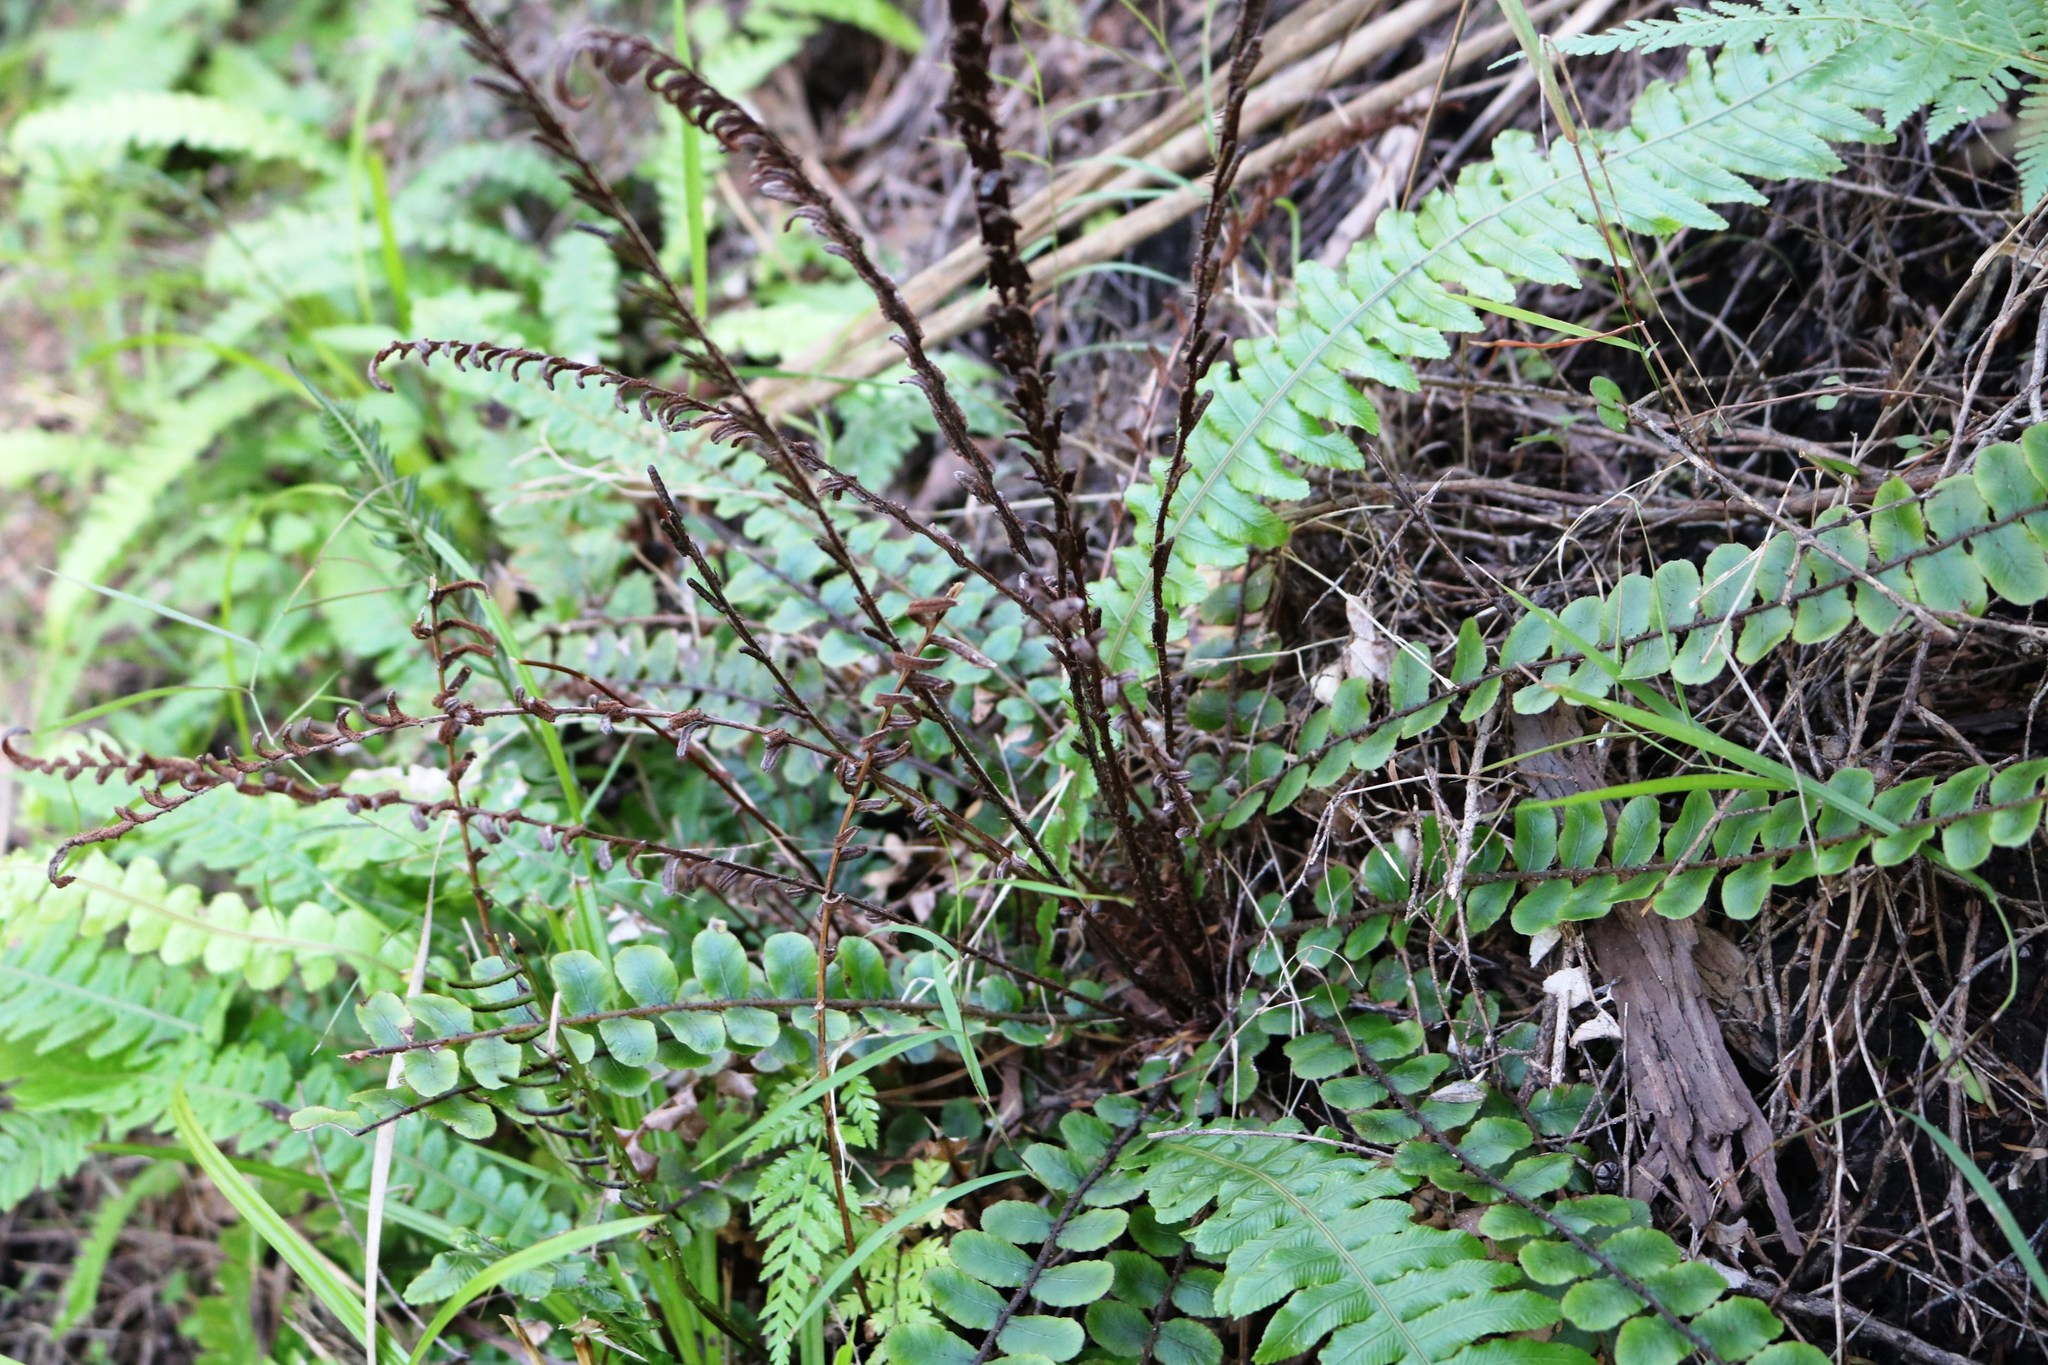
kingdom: Plantae
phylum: Tracheophyta
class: Polypodiopsida
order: Polypodiales
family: Blechnaceae
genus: Cranfillia
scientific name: Cranfillia fluviatilis
